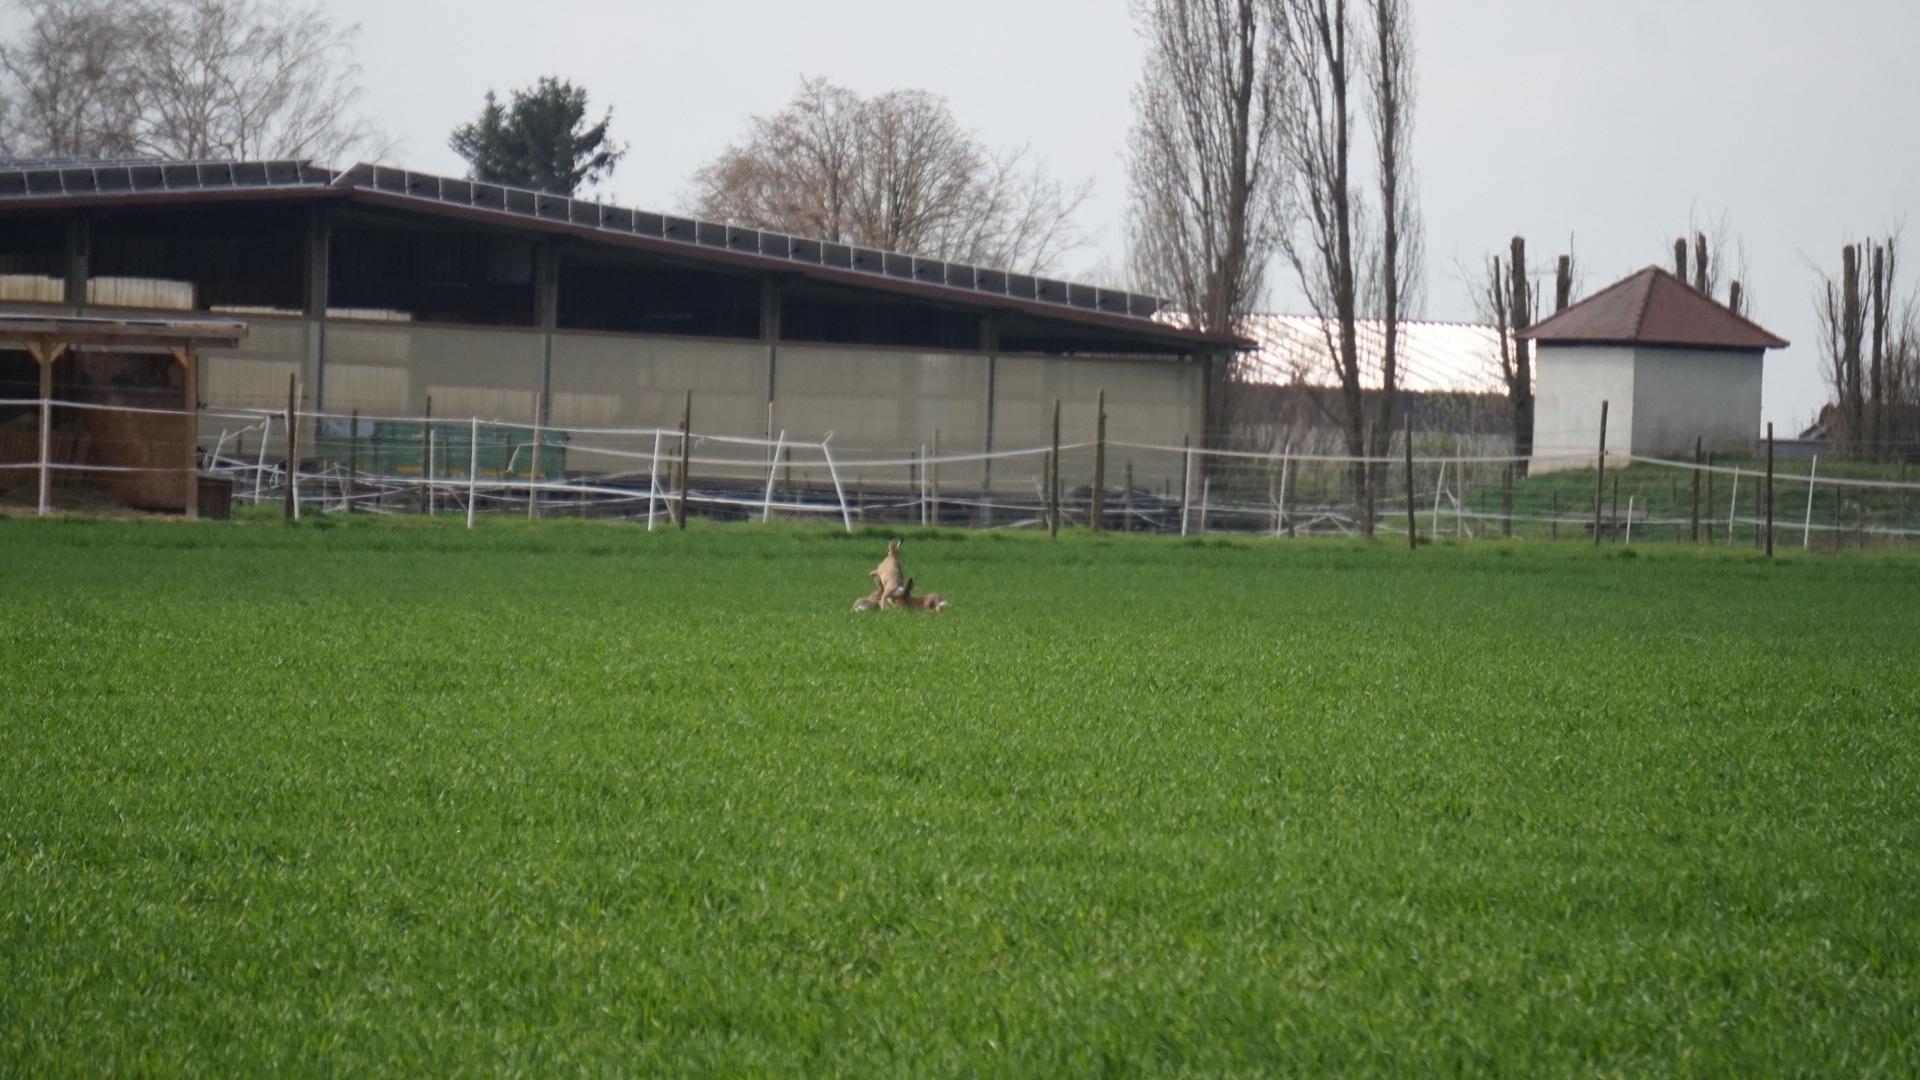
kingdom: Animalia
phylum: Chordata
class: Mammalia
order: Lagomorpha
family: Leporidae
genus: Lepus
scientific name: Lepus europaeus
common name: European hare
